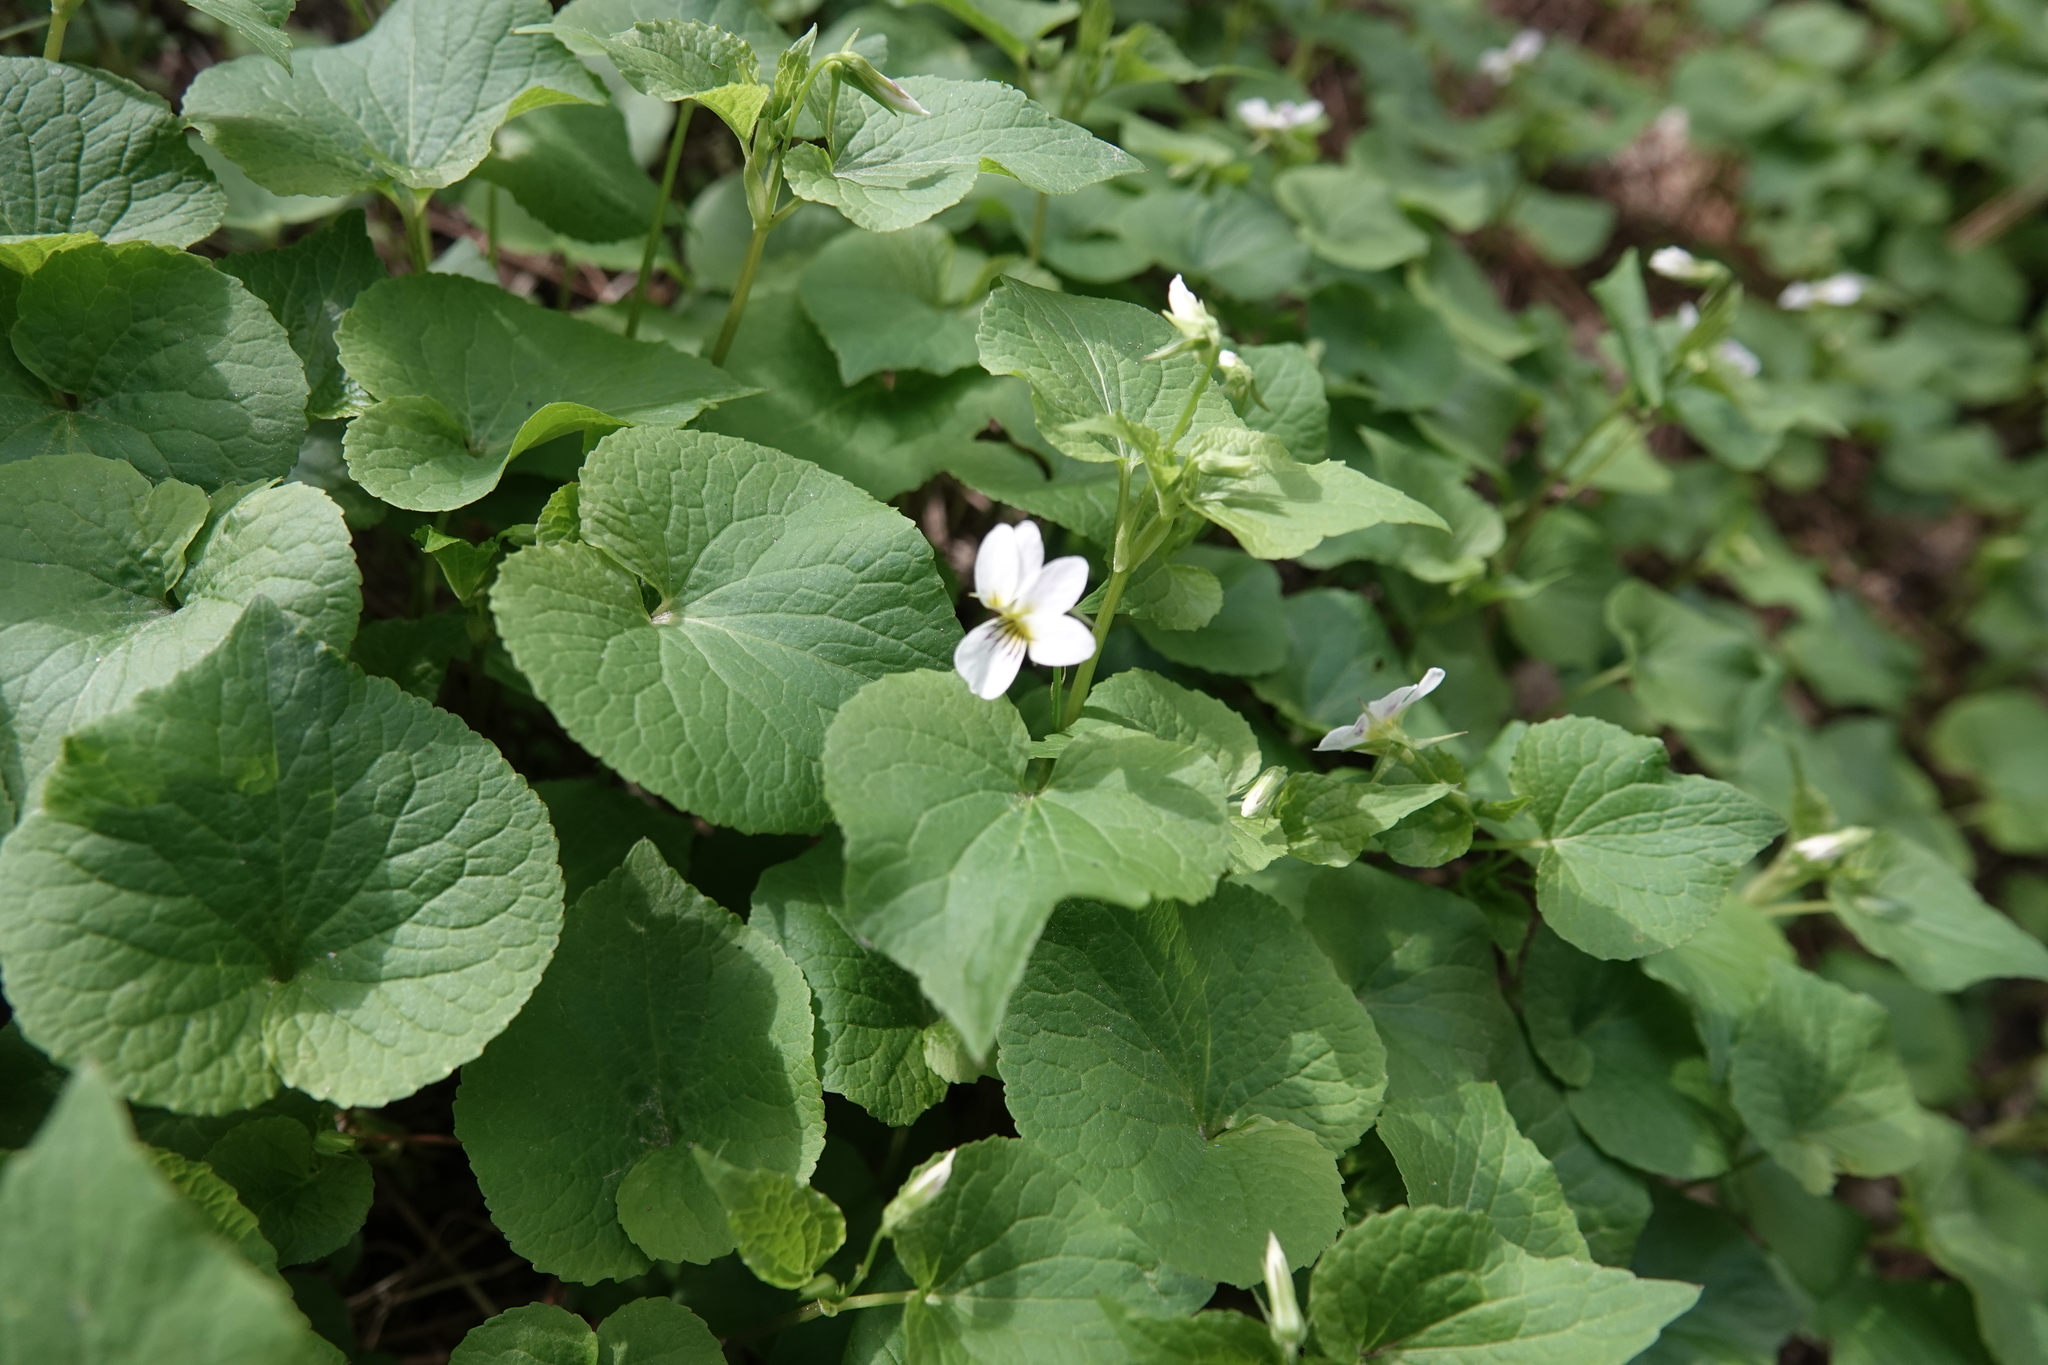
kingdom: Plantae
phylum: Tracheophyta
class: Magnoliopsida
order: Malpighiales
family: Violaceae
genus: Viola
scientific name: Viola canadensis
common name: Canada violet
